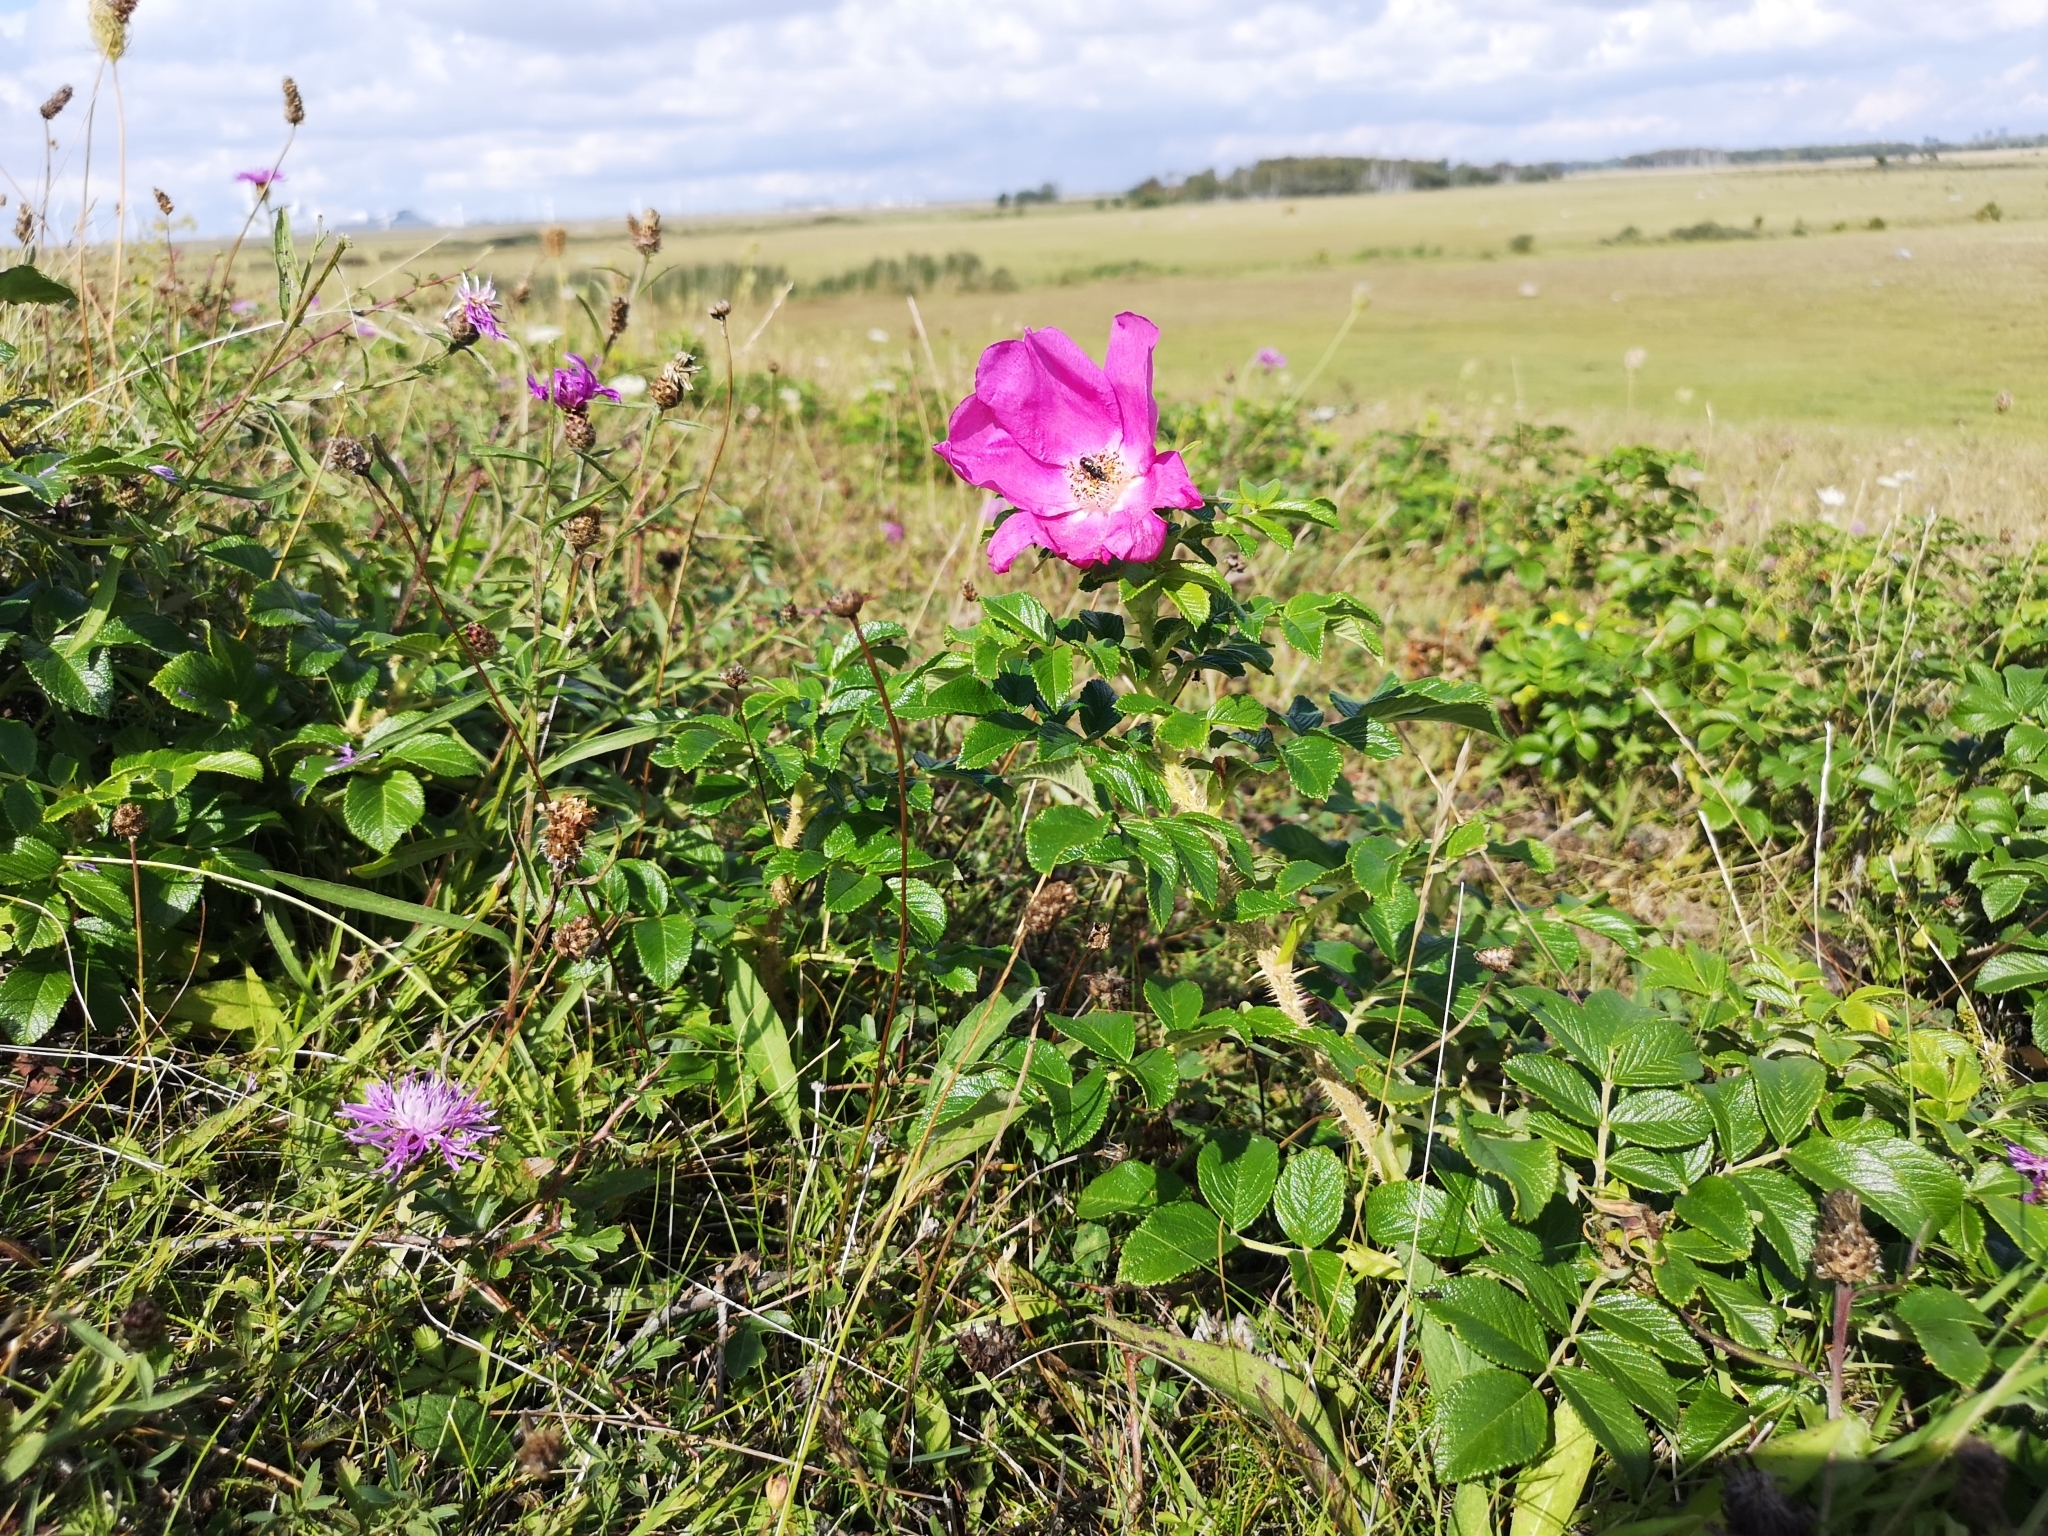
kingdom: Plantae
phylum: Tracheophyta
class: Magnoliopsida
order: Rosales
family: Rosaceae
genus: Rosa
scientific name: Rosa rugosa
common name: Japanese rose
